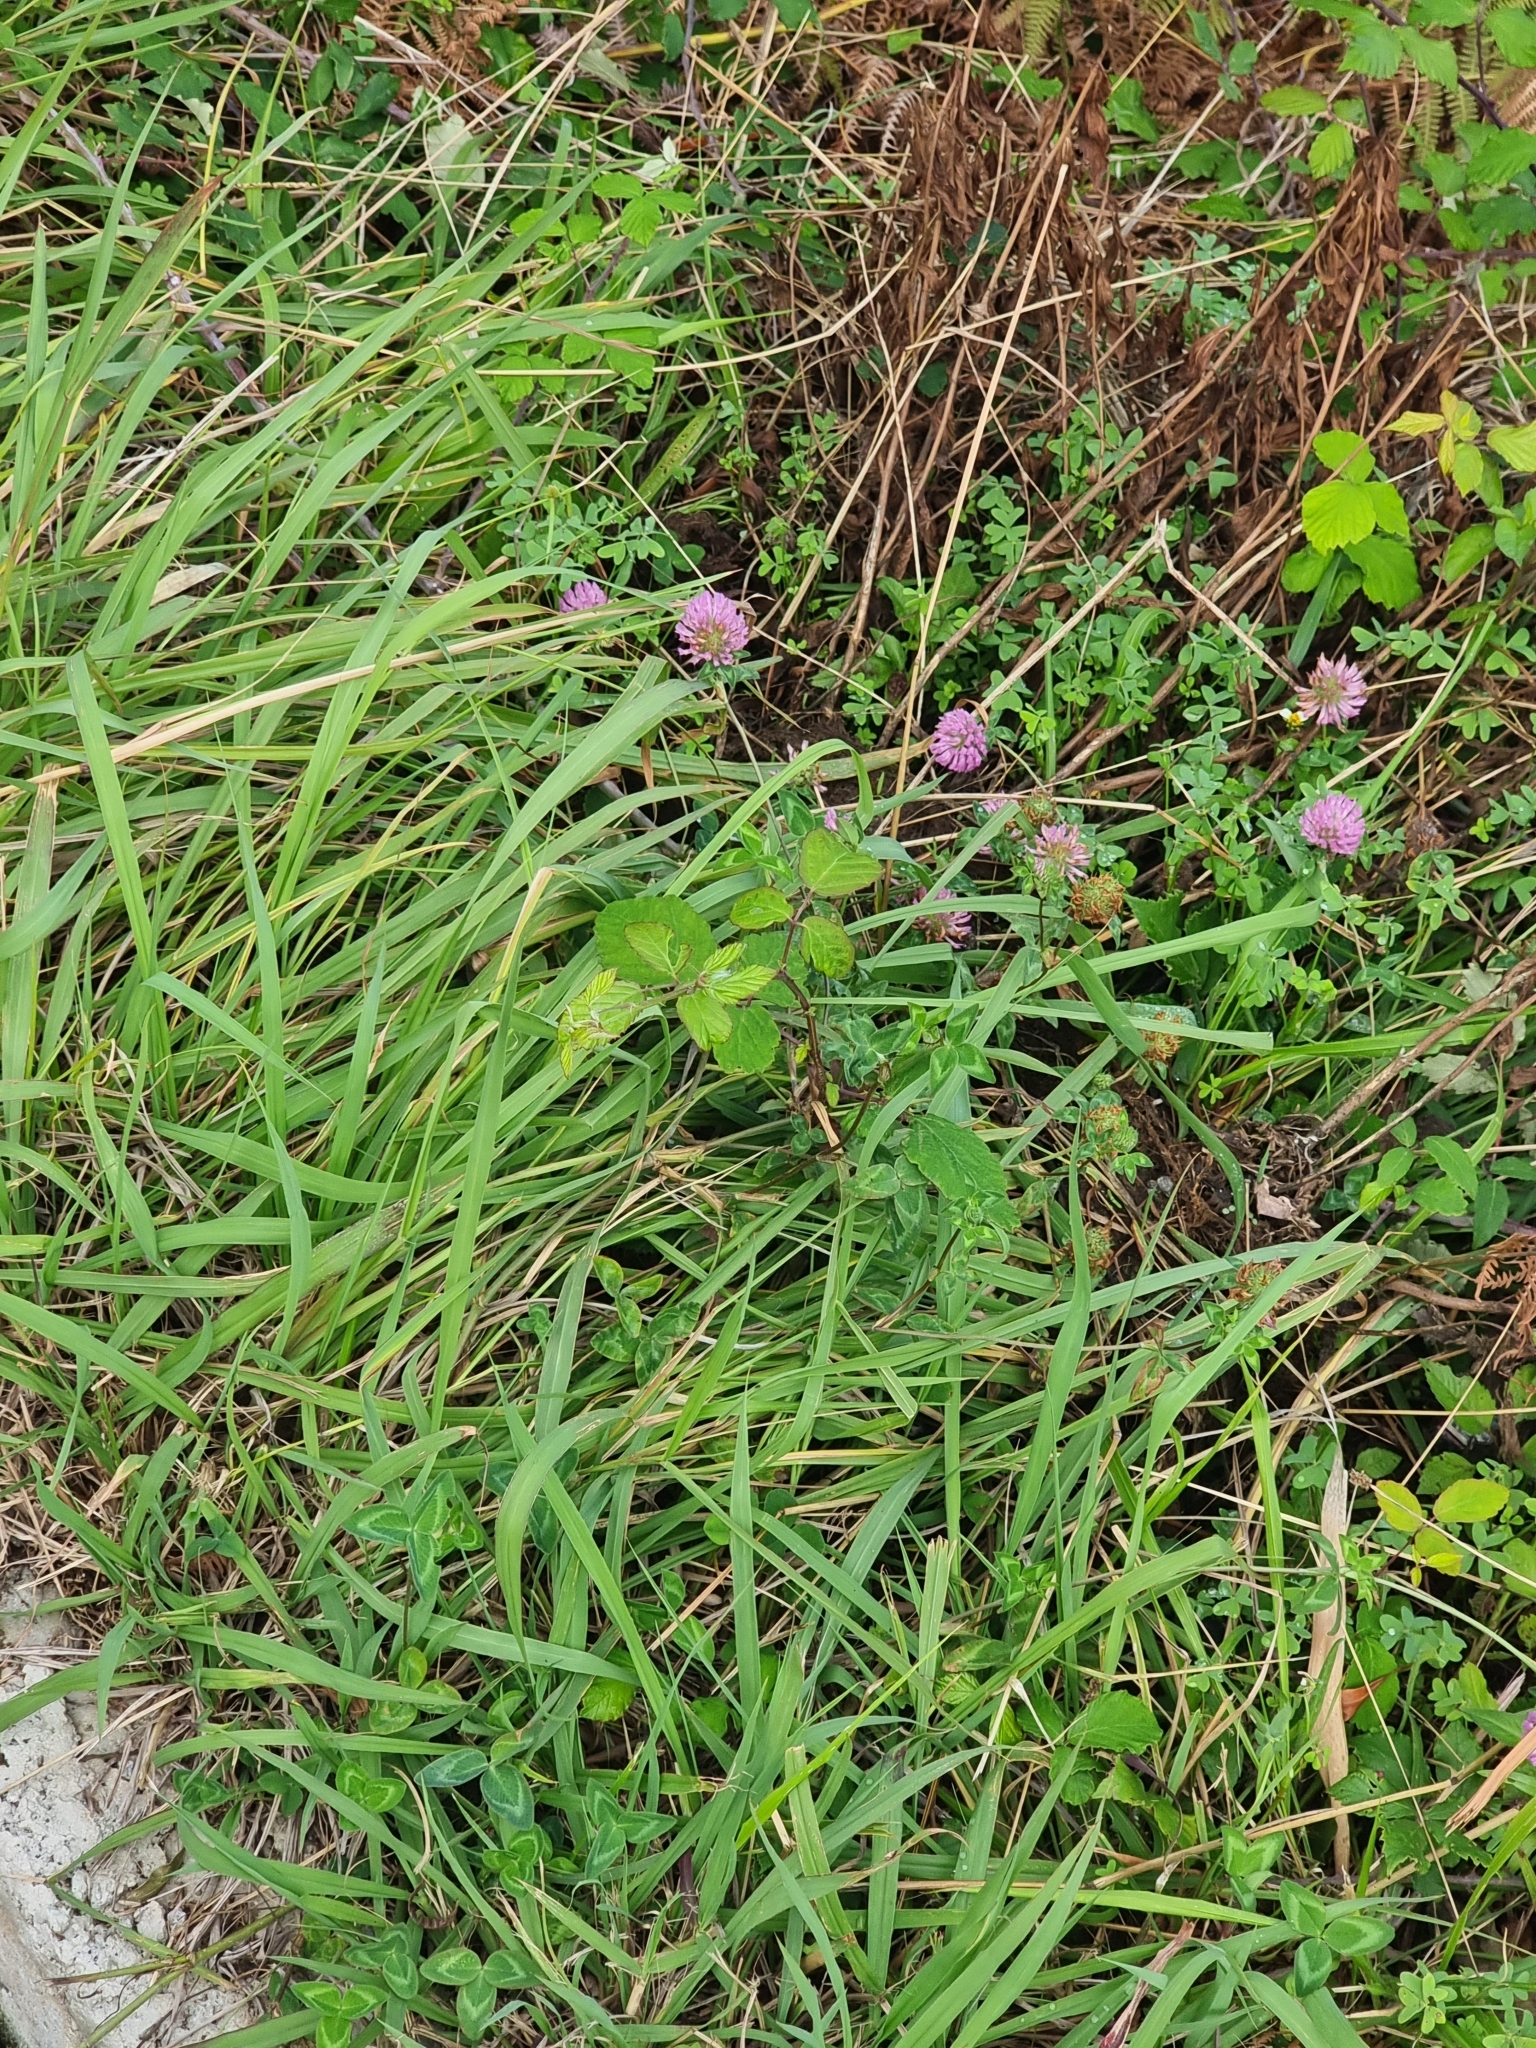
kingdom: Plantae
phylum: Tracheophyta
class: Magnoliopsida
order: Fabales
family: Fabaceae
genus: Trifolium
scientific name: Trifolium pratense
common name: Red clover
